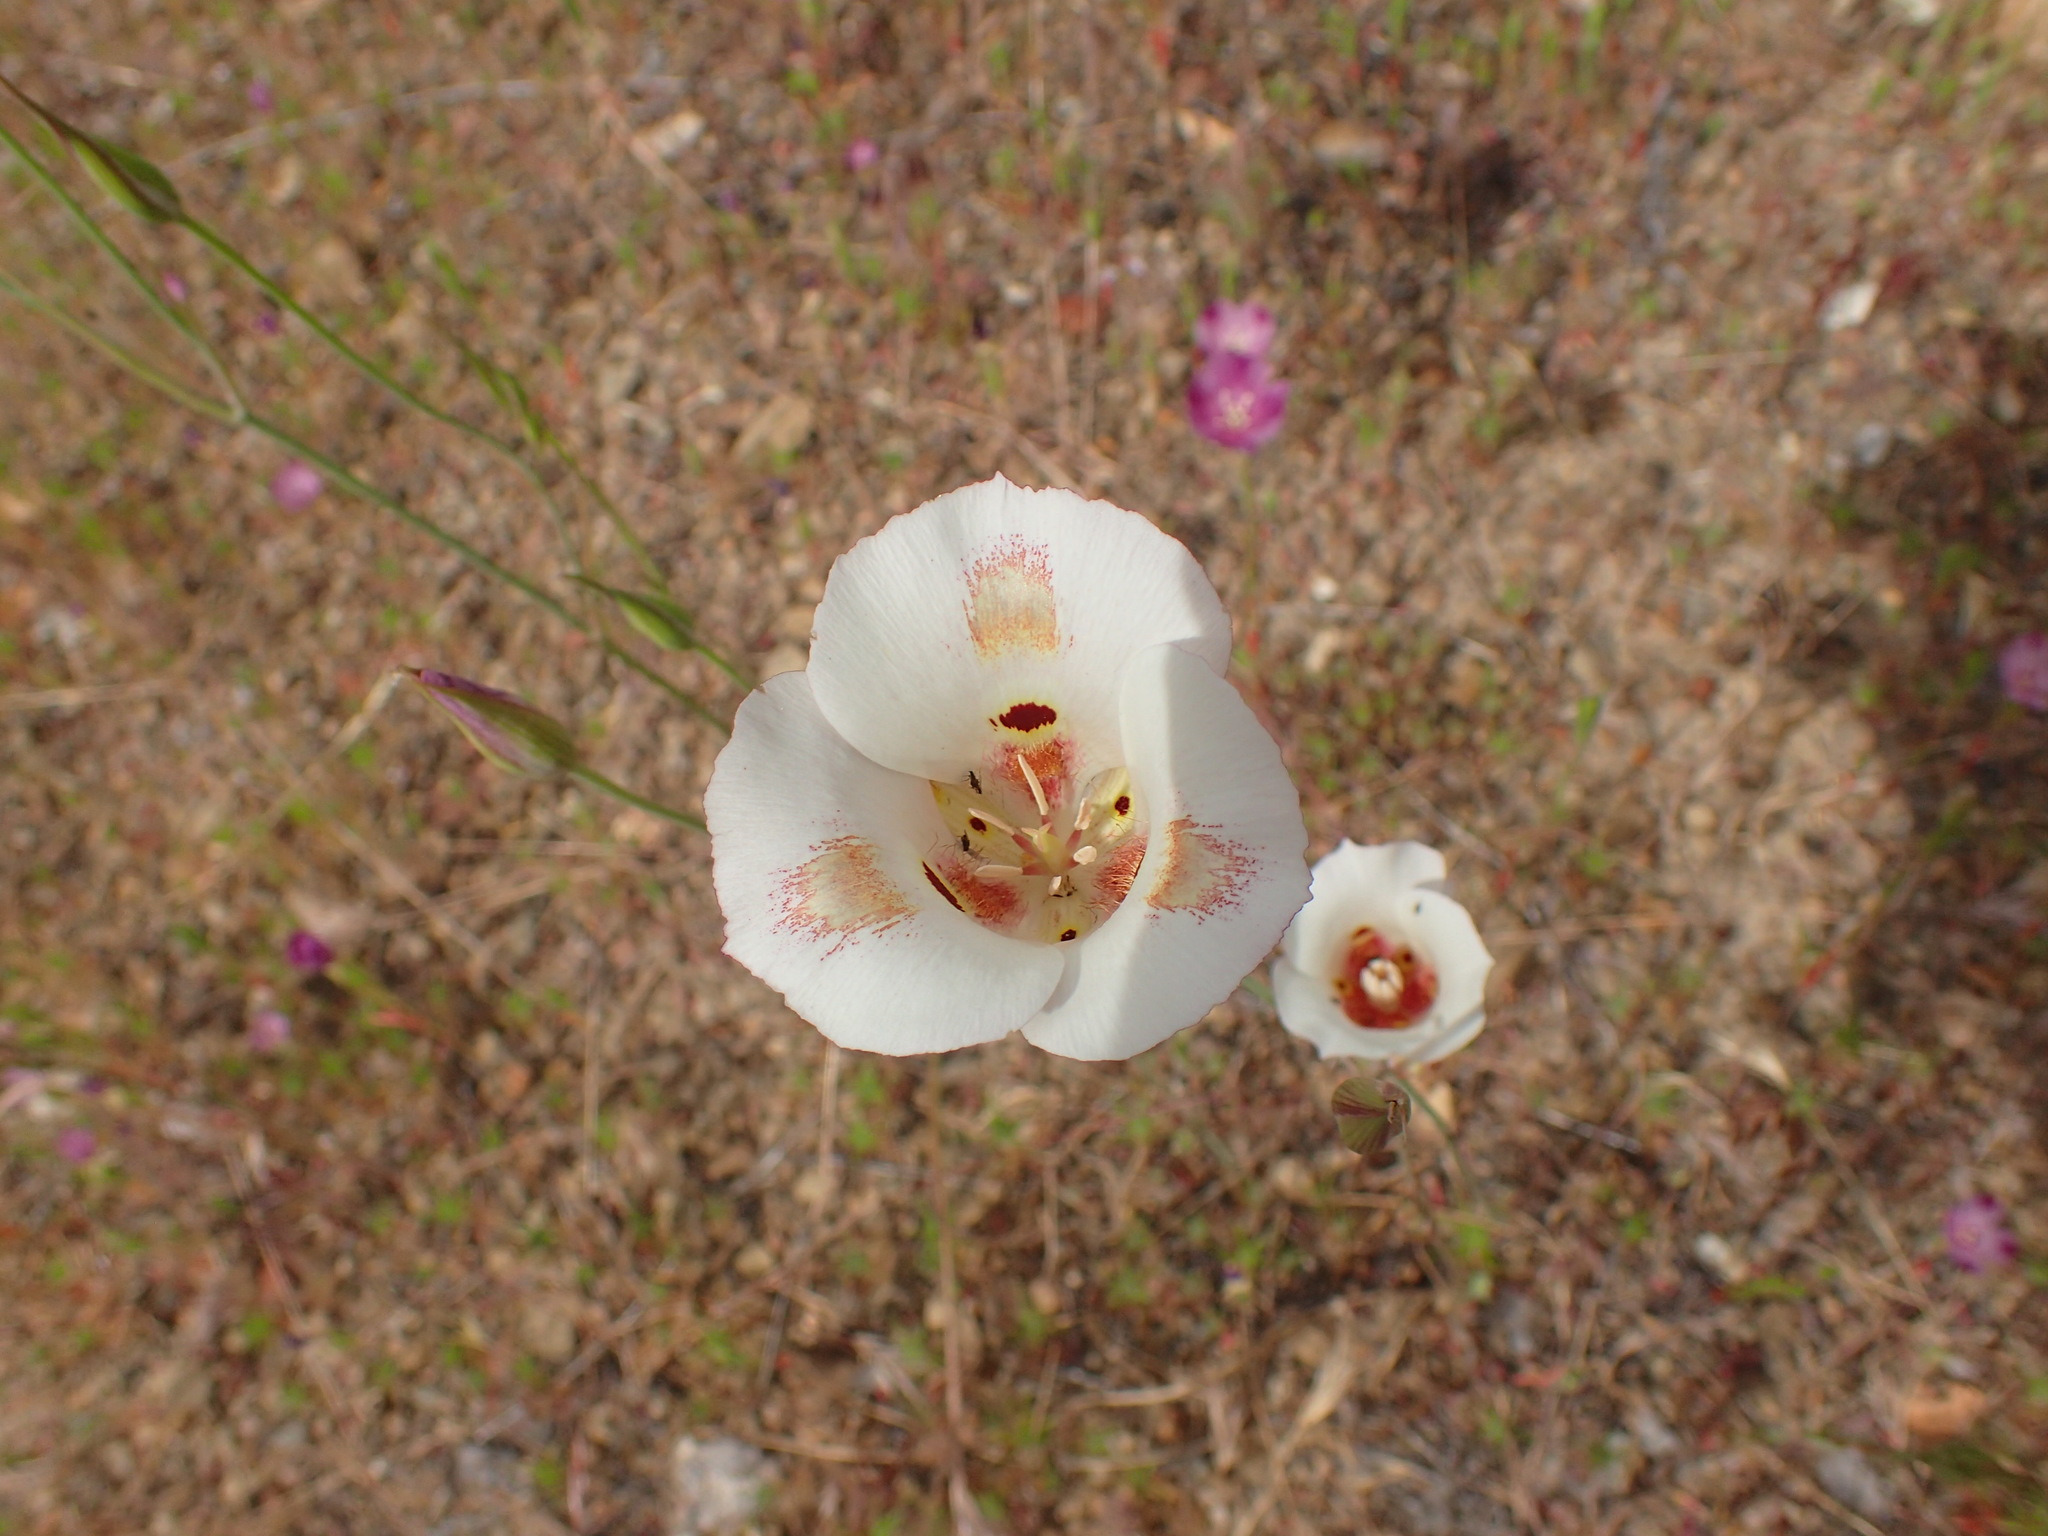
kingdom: Plantae
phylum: Tracheophyta
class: Liliopsida
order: Liliales
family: Liliaceae
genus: Calochortus
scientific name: Calochortus venustus
